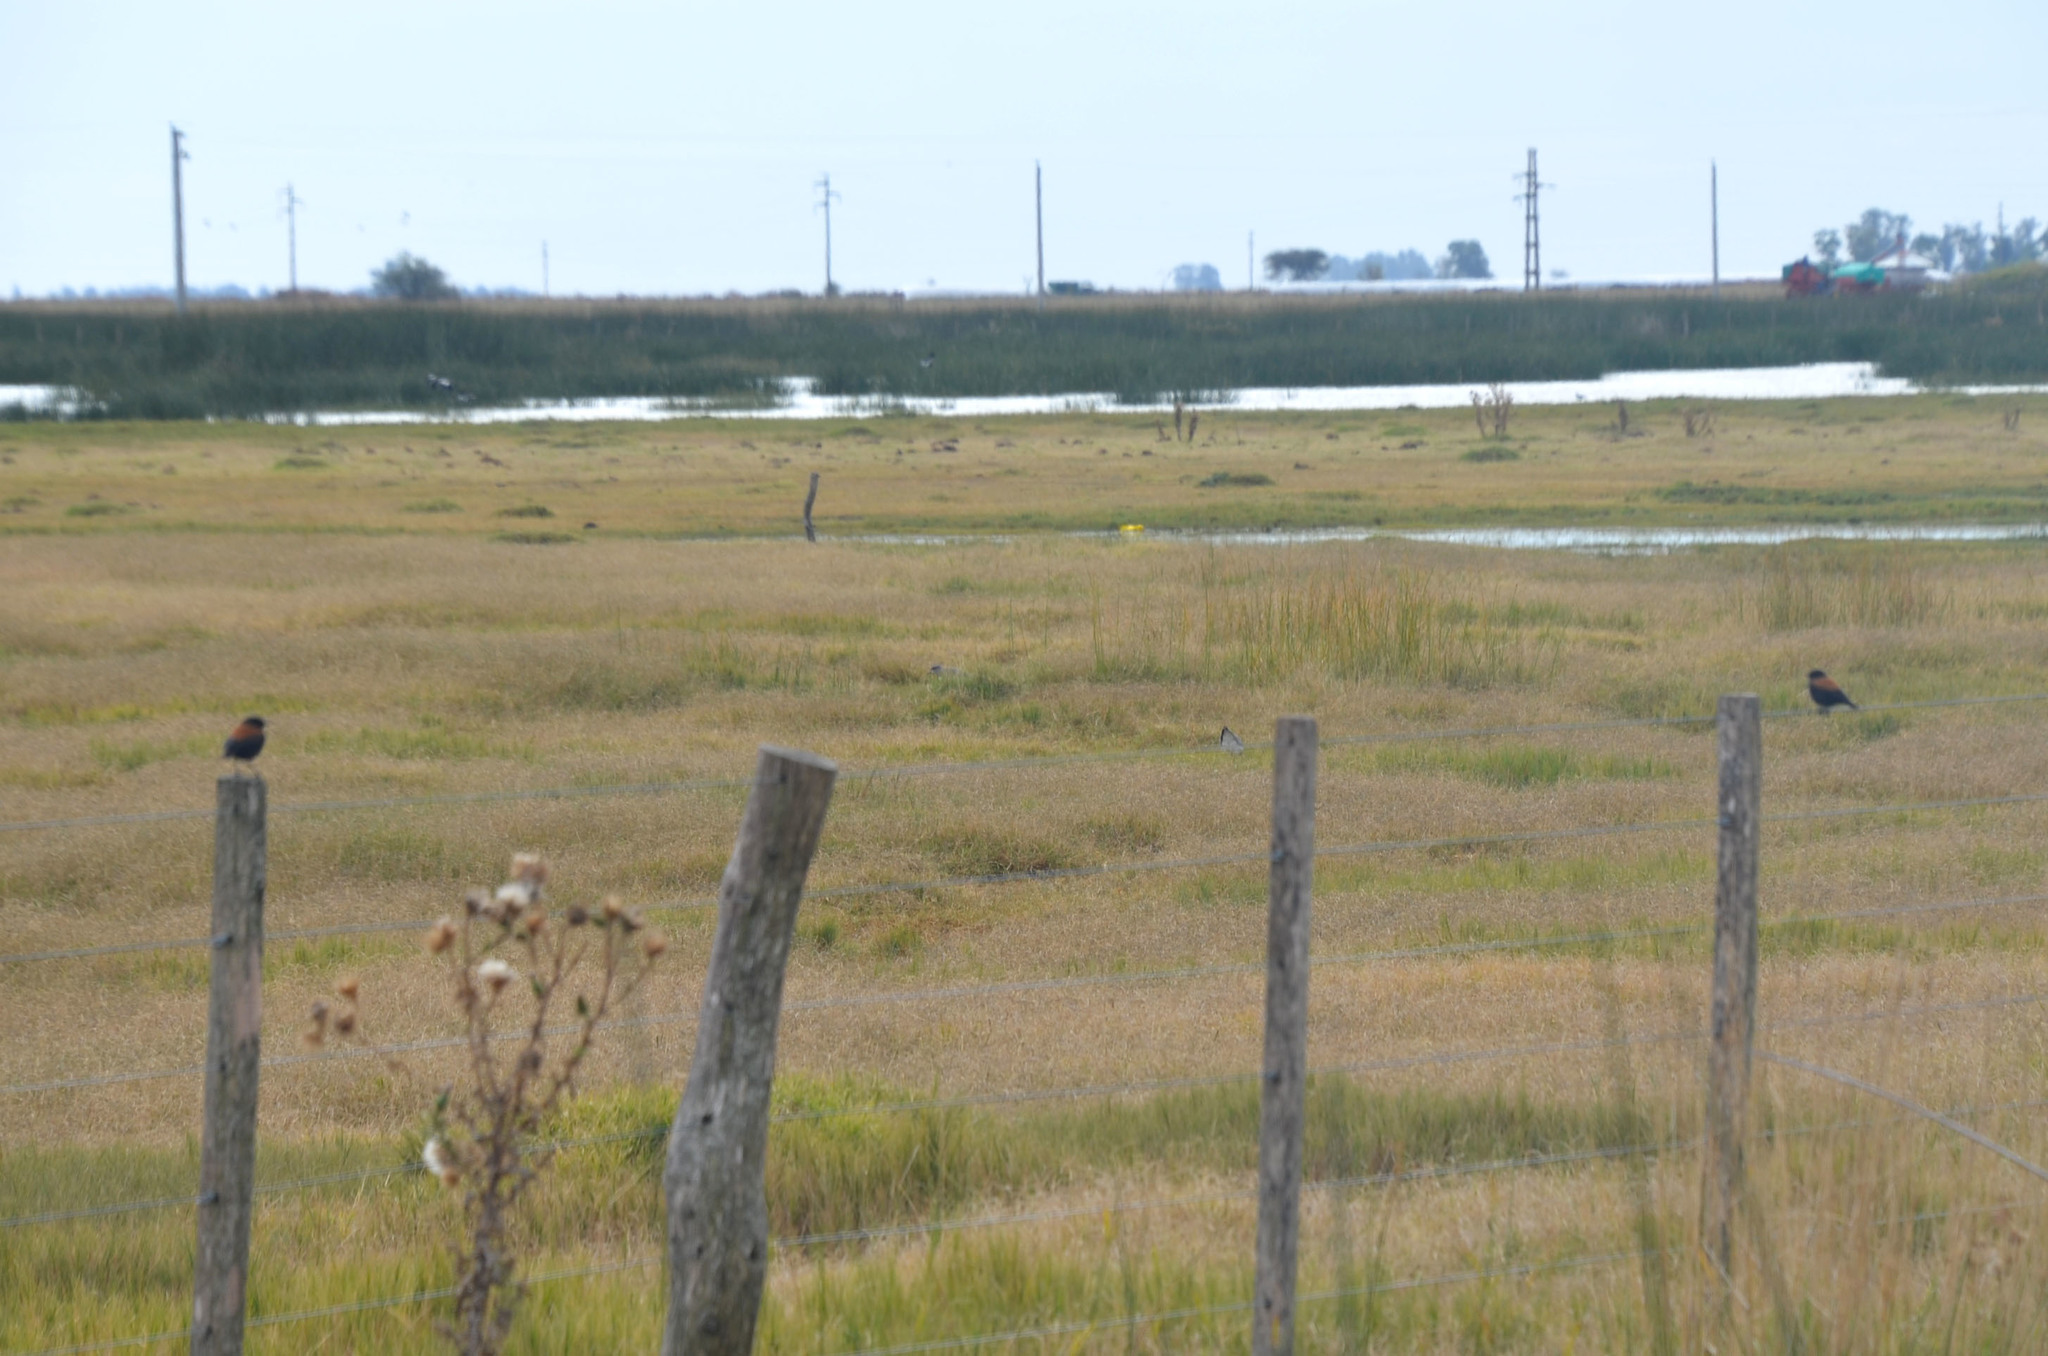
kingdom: Animalia
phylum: Chordata
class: Aves
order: Passeriformes
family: Tyrannidae
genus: Lessonia
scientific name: Lessonia rufa
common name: Austral negrito
